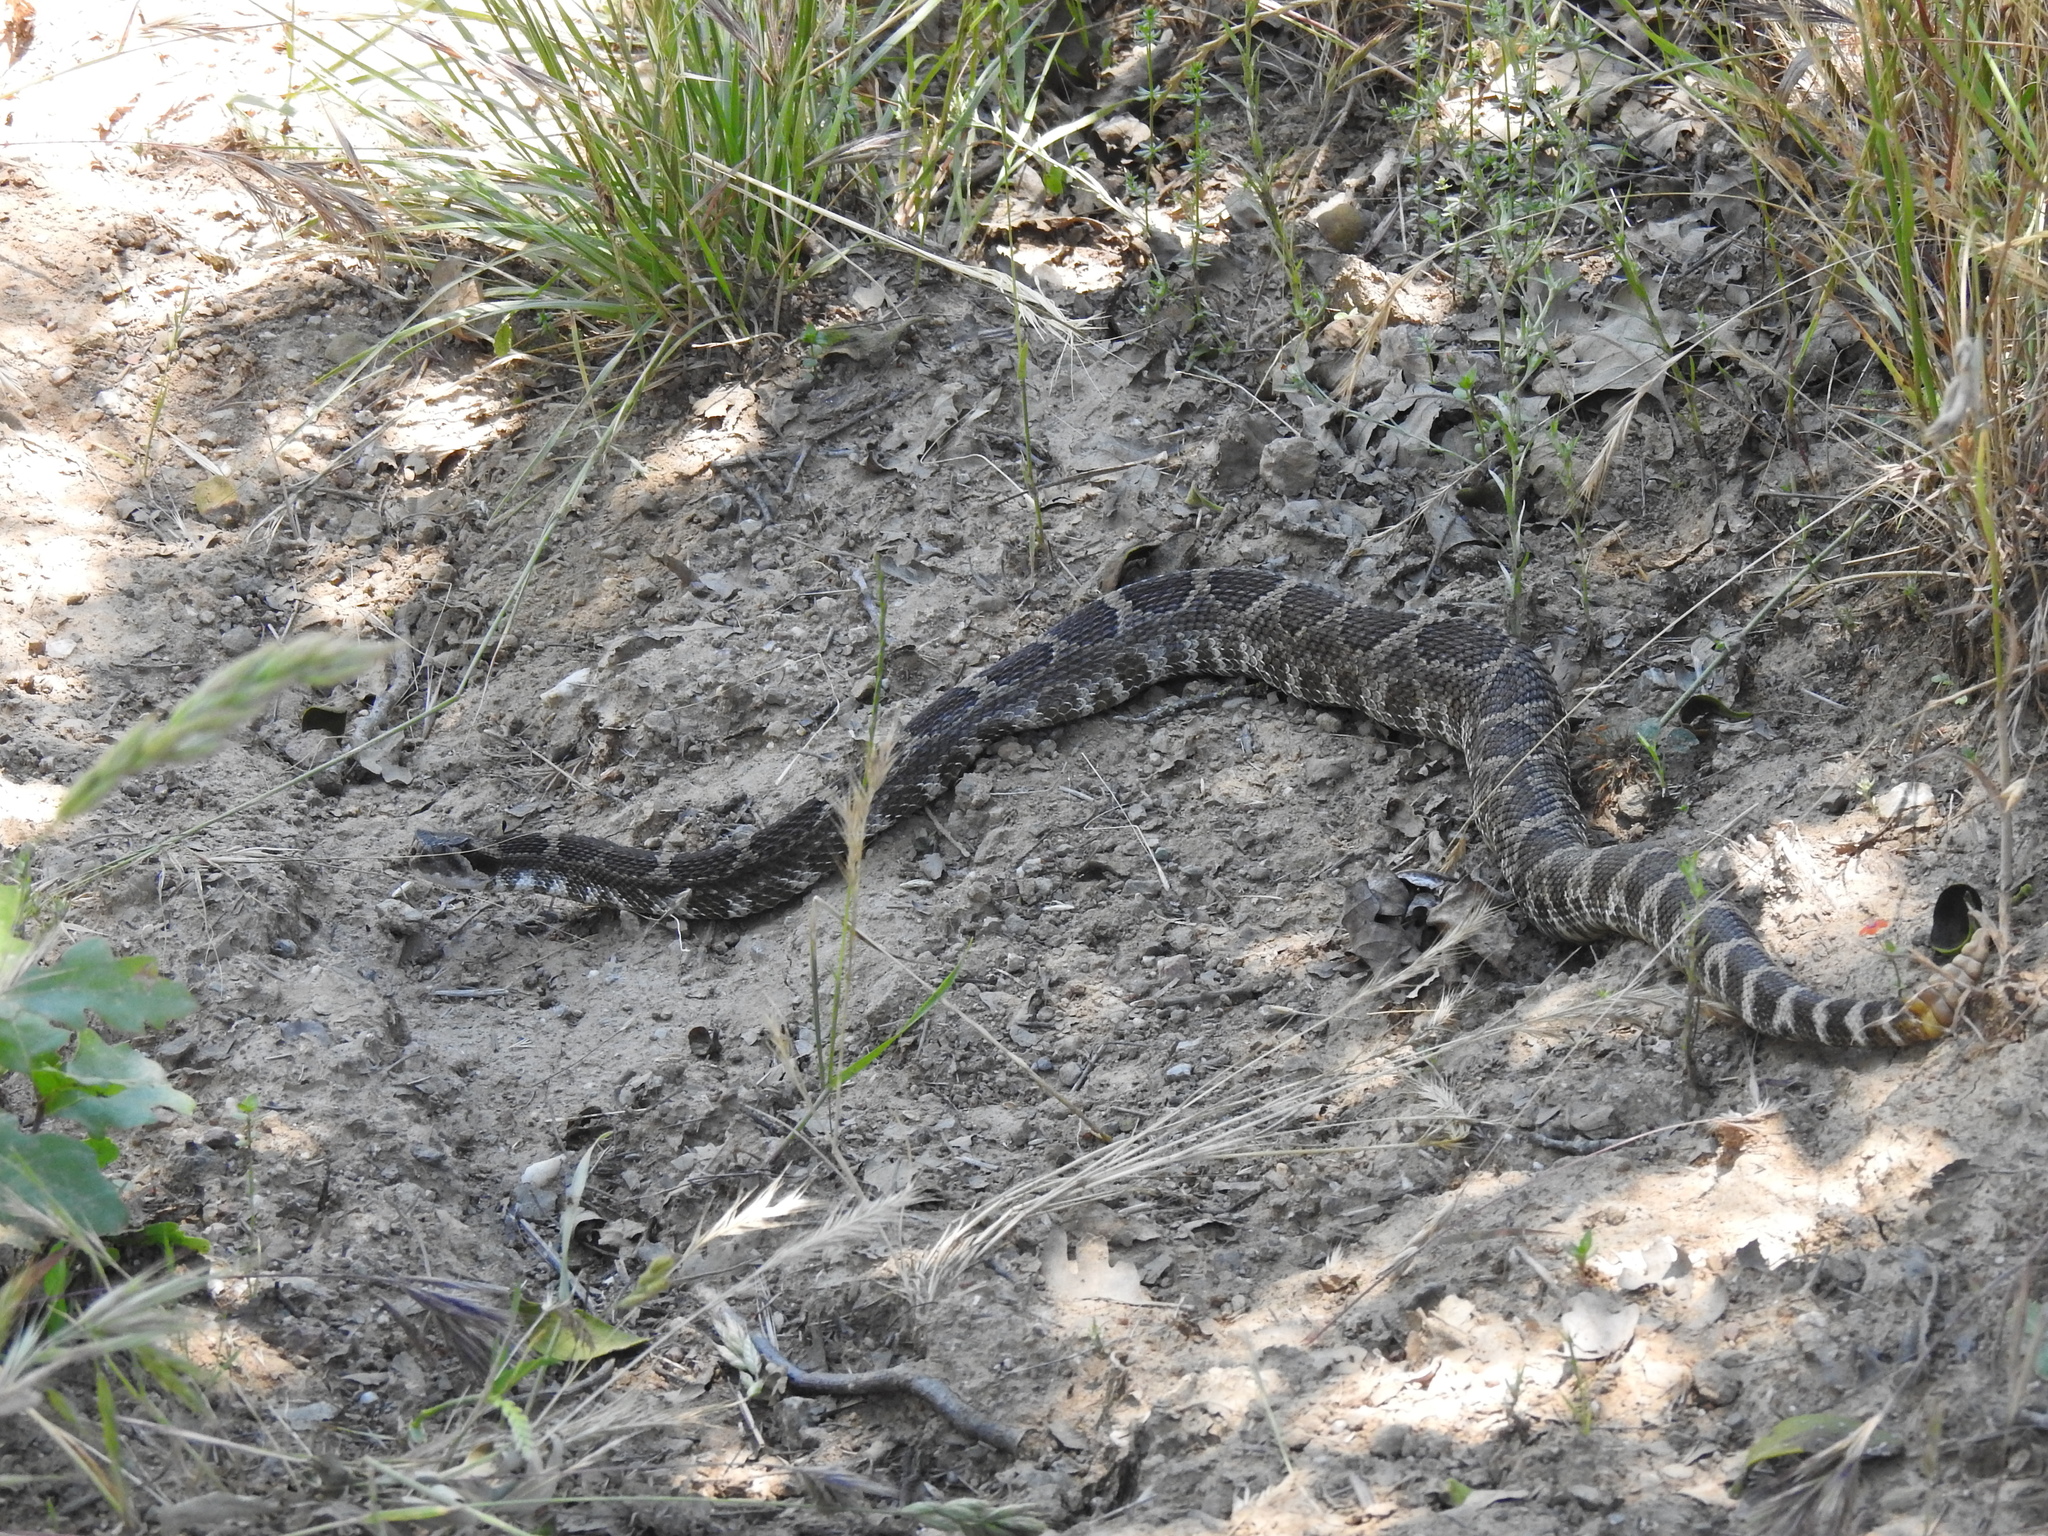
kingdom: Animalia
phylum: Chordata
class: Squamata
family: Viperidae
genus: Crotalus
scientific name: Crotalus oreganus
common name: Abyssus
